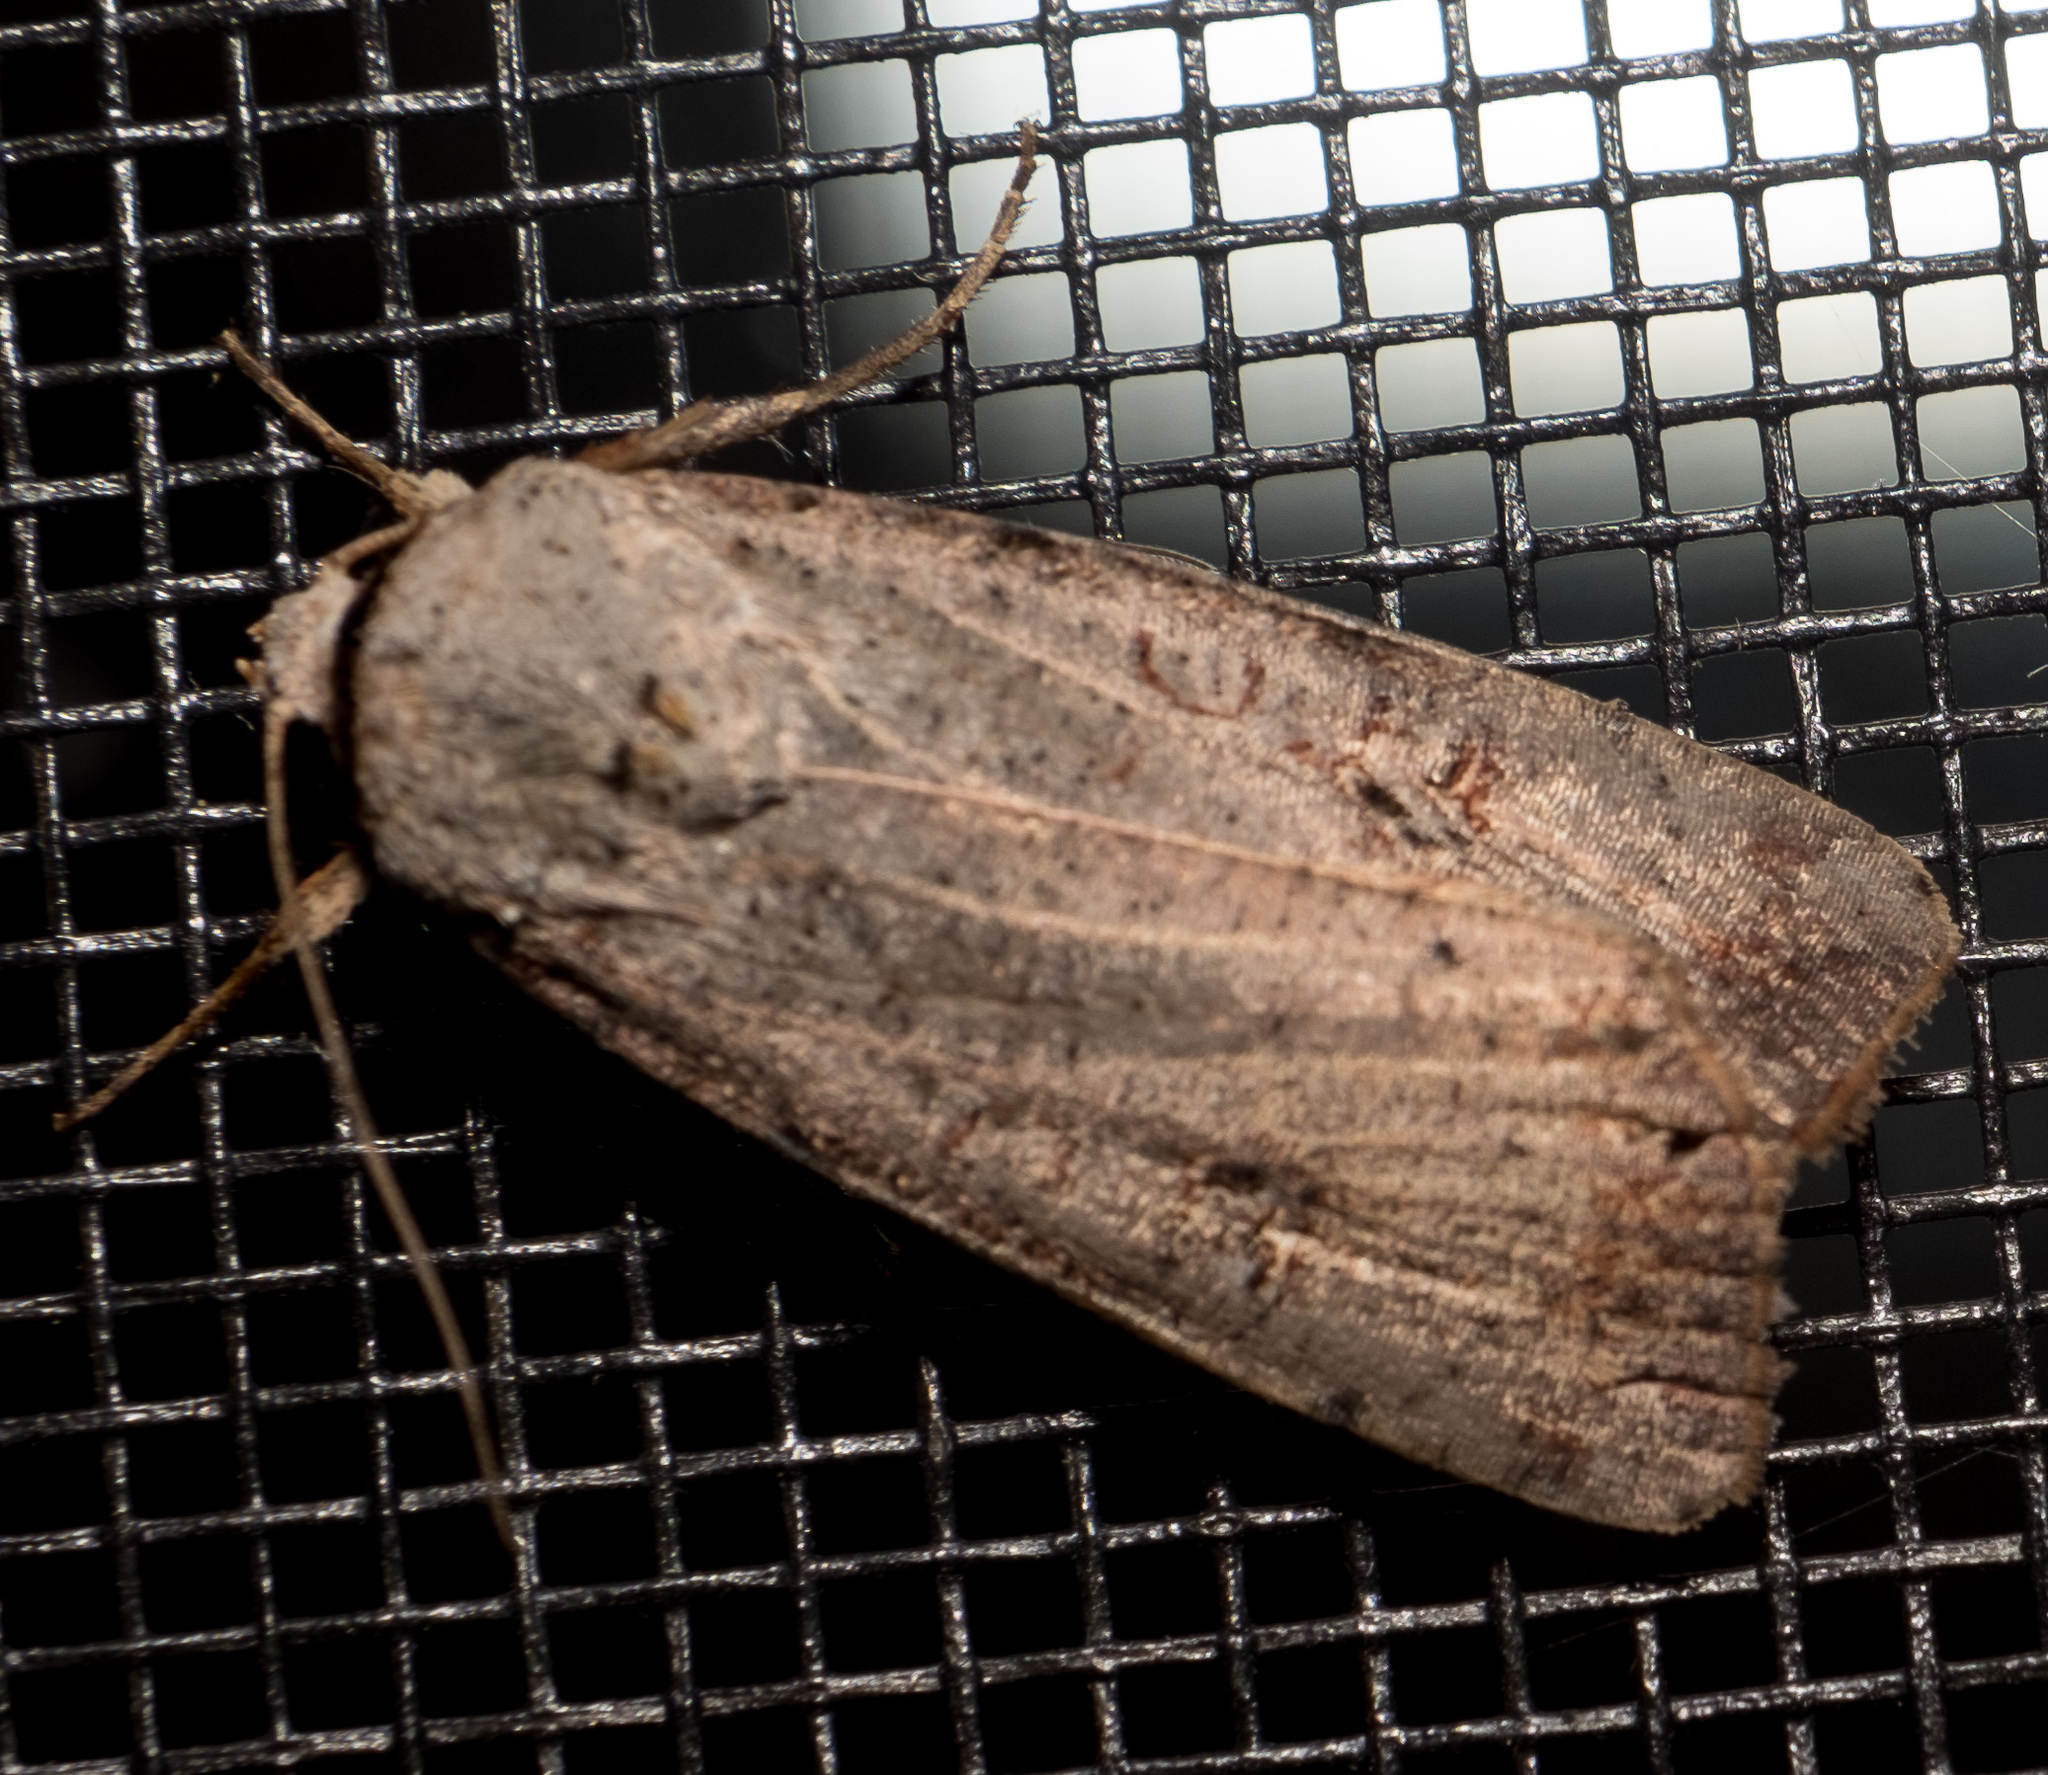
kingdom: Animalia
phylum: Arthropoda
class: Insecta
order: Lepidoptera
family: Noctuidae
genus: Anicla
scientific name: Anicla infecta
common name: Green cutworm
